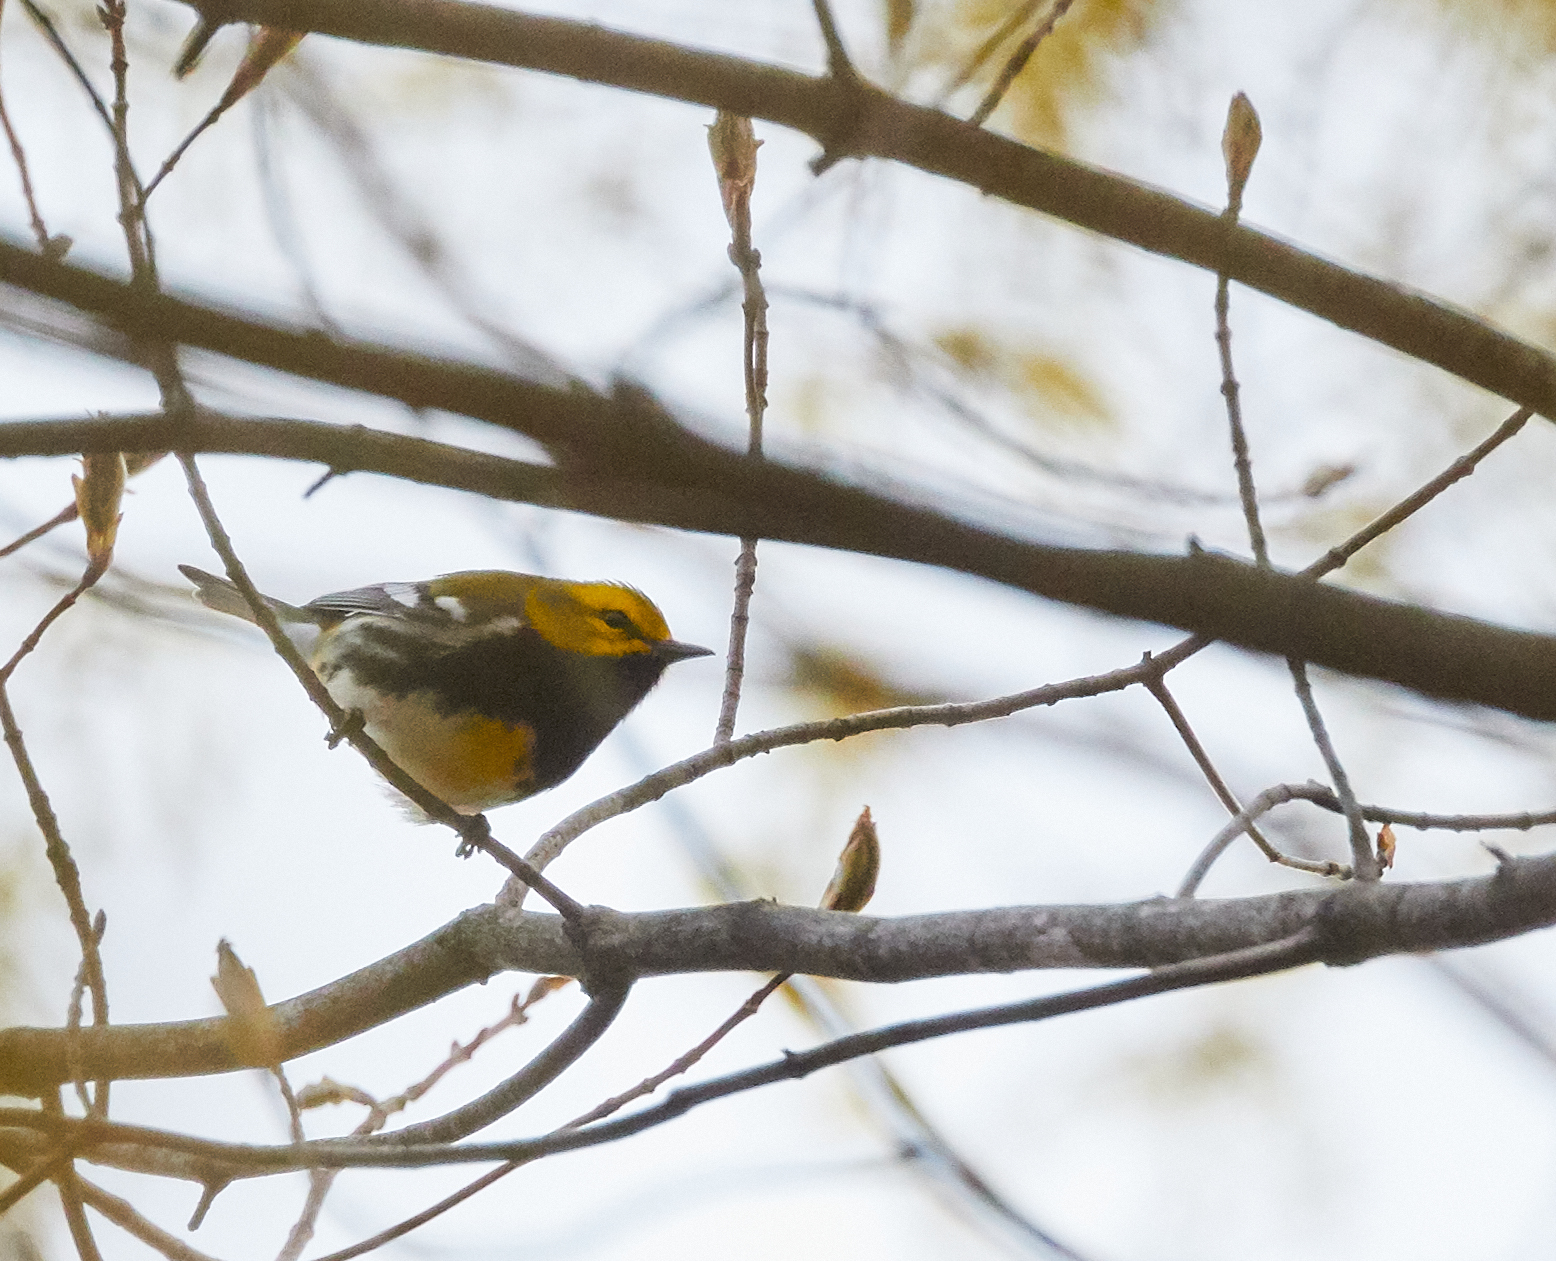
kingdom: Animalia
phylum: Chordata
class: Aves
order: Passeriformes
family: Parulidae
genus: Setophaga
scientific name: Setophaga virens
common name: Black-throated green warbler
